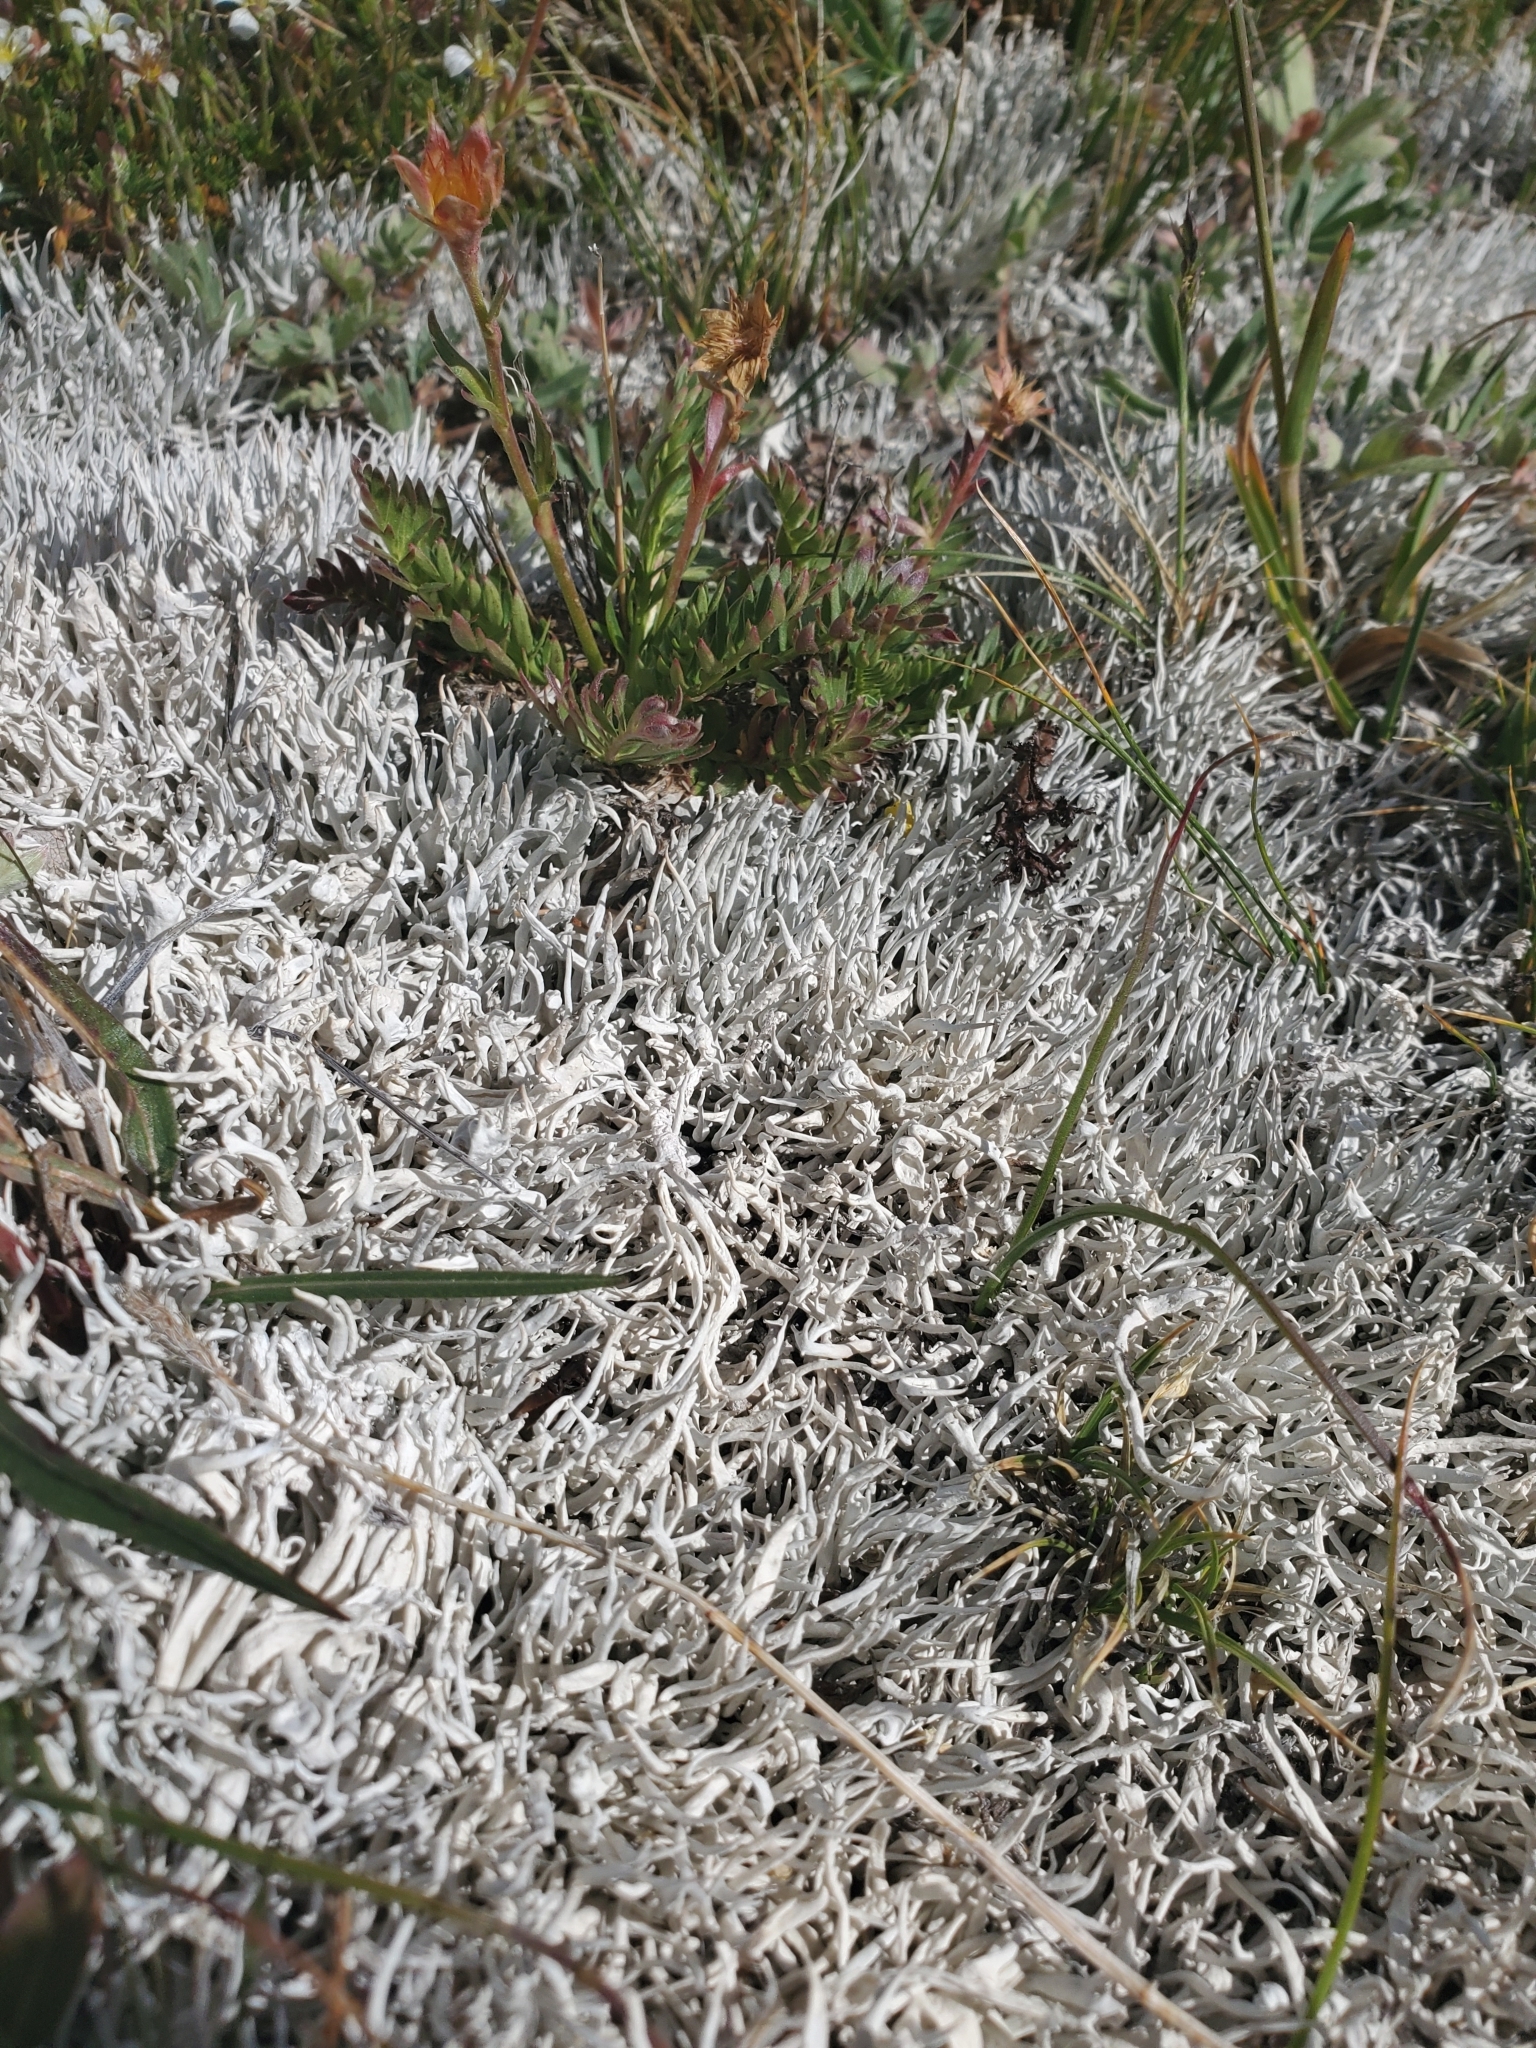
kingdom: Fungi
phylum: Ascomycota
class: Lecanoromycetes
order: Pertusariales
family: Icmadophilaceae
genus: Thamnolia
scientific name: Thamnolia vermicularis
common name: Whiteworm lichen
